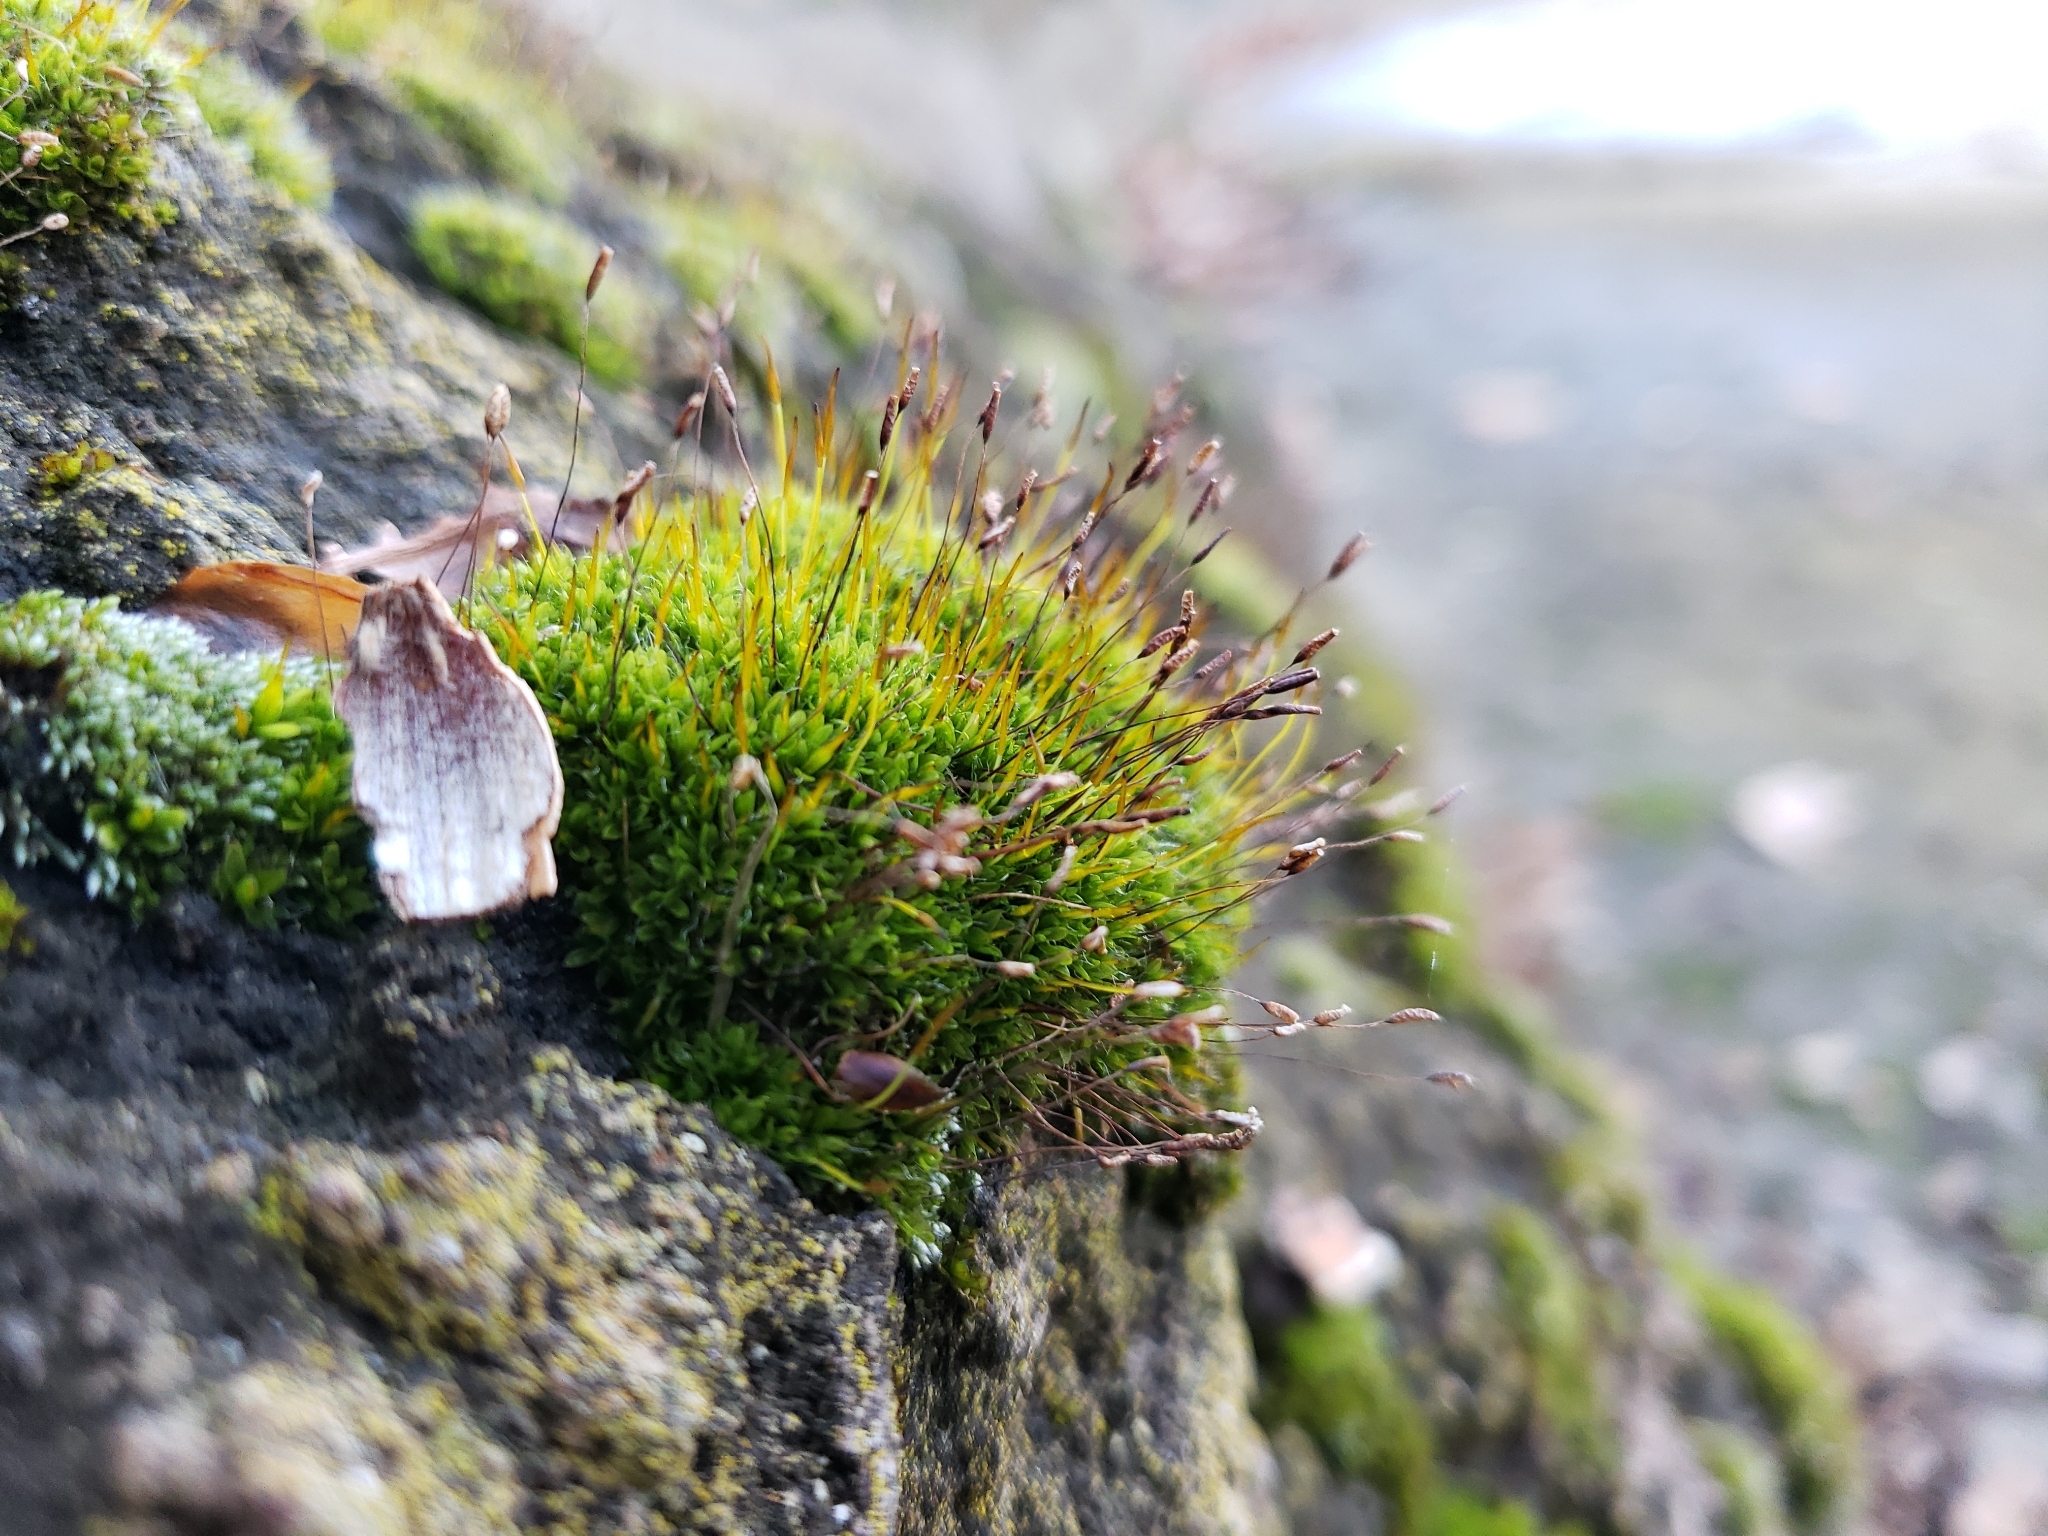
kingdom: Plantae
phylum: Bryophyta
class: Bryopsida
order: Pottiales
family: Pottiaceae
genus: Tortula
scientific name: Tortula muralis
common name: Wall screw-moss
